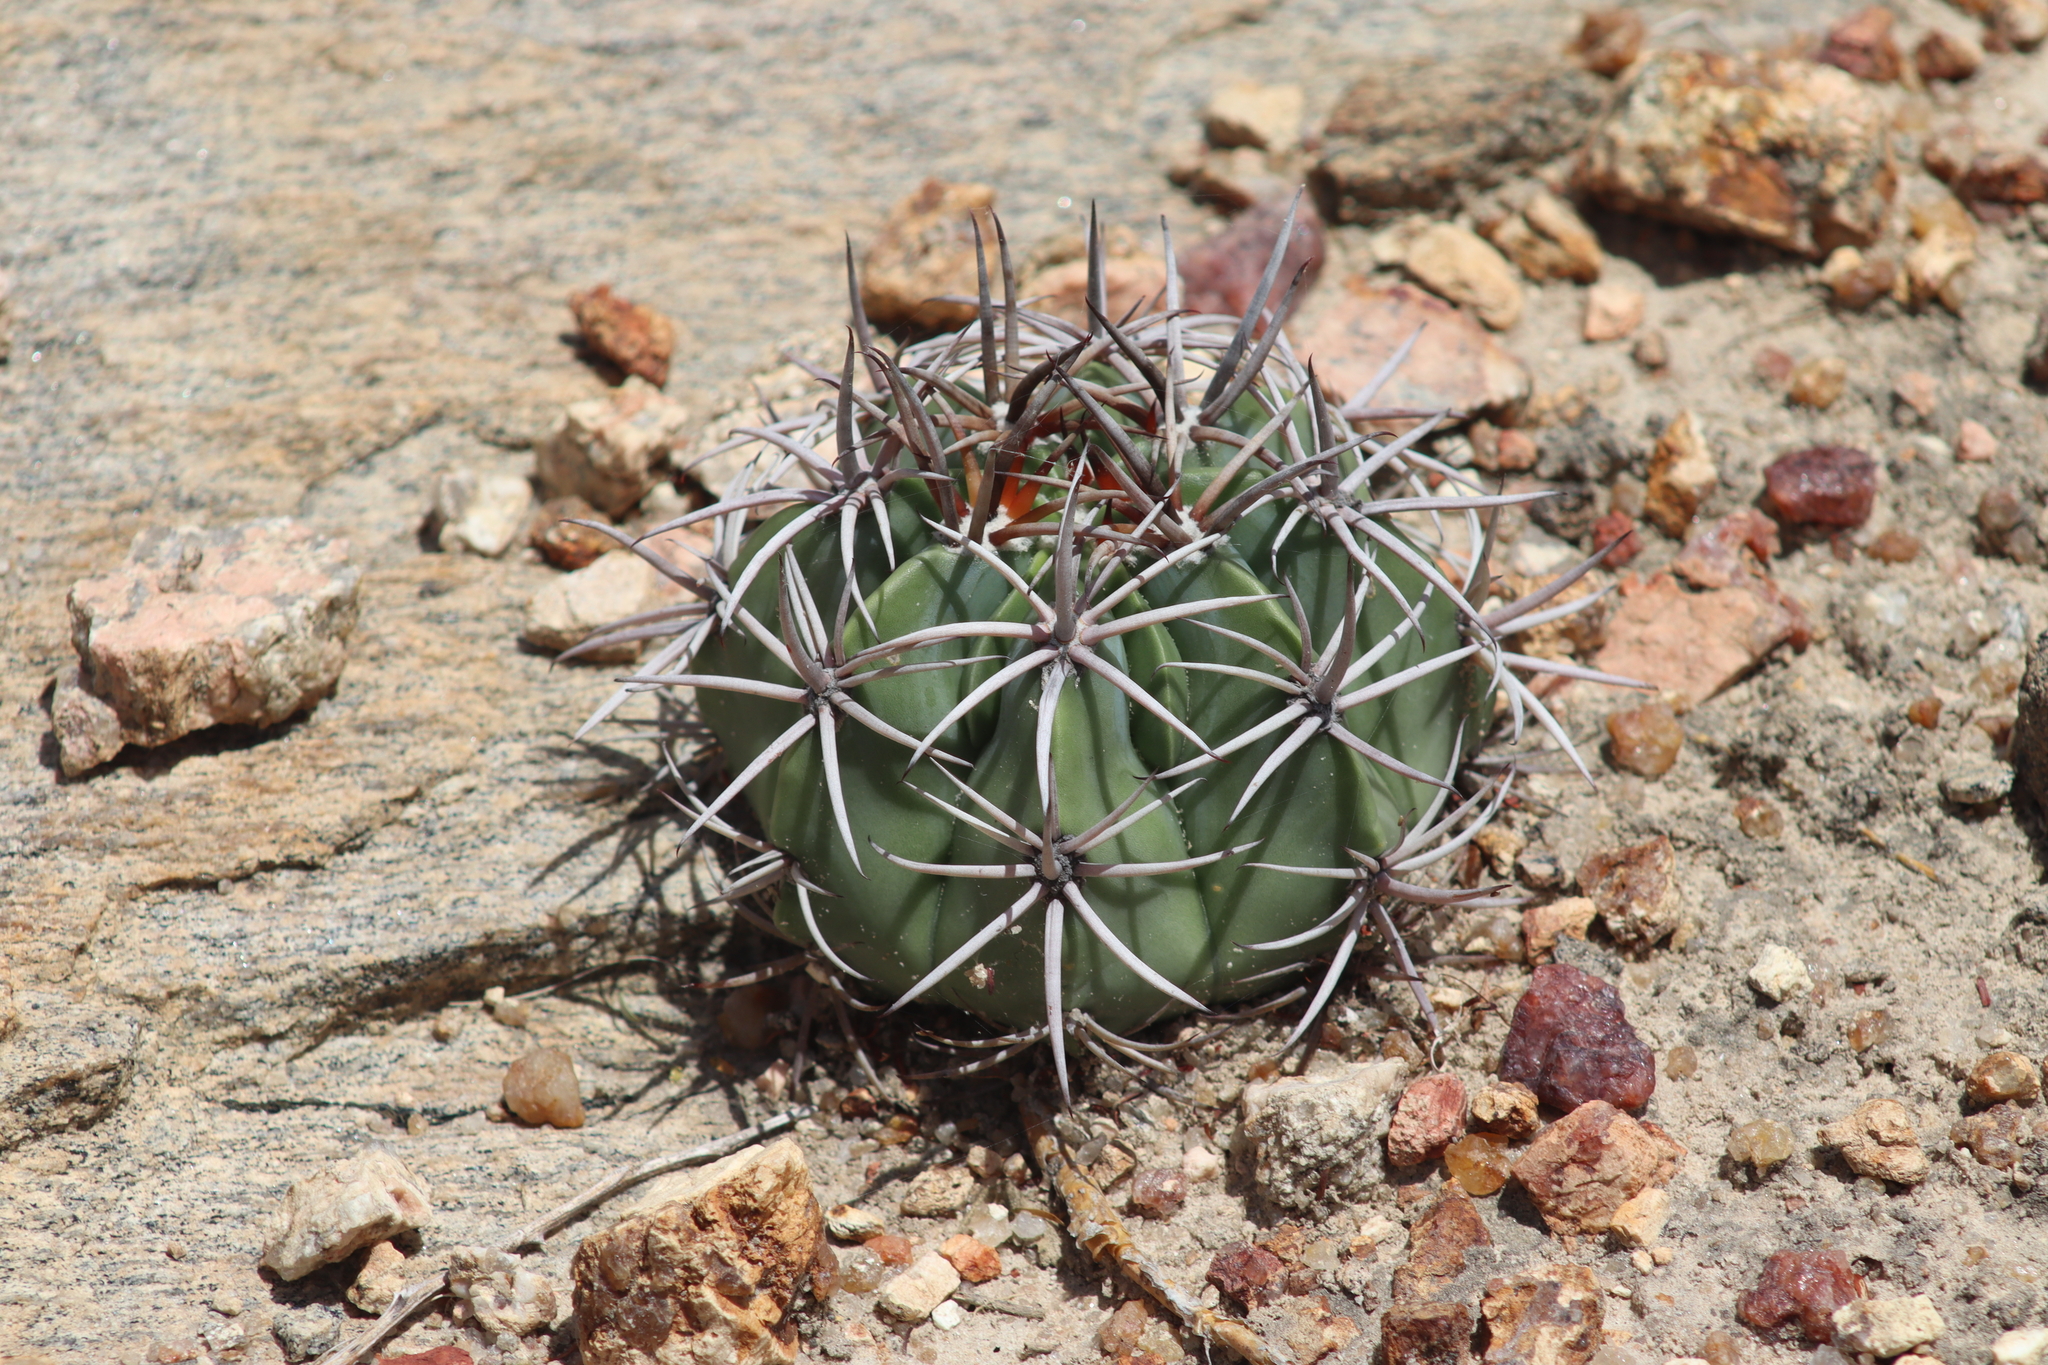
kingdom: Plantae
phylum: Tracheophyta
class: Magnoliopsida
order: Caryophyllales
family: Cactaceae
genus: Melocactus
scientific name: Melocactus zehntneri
